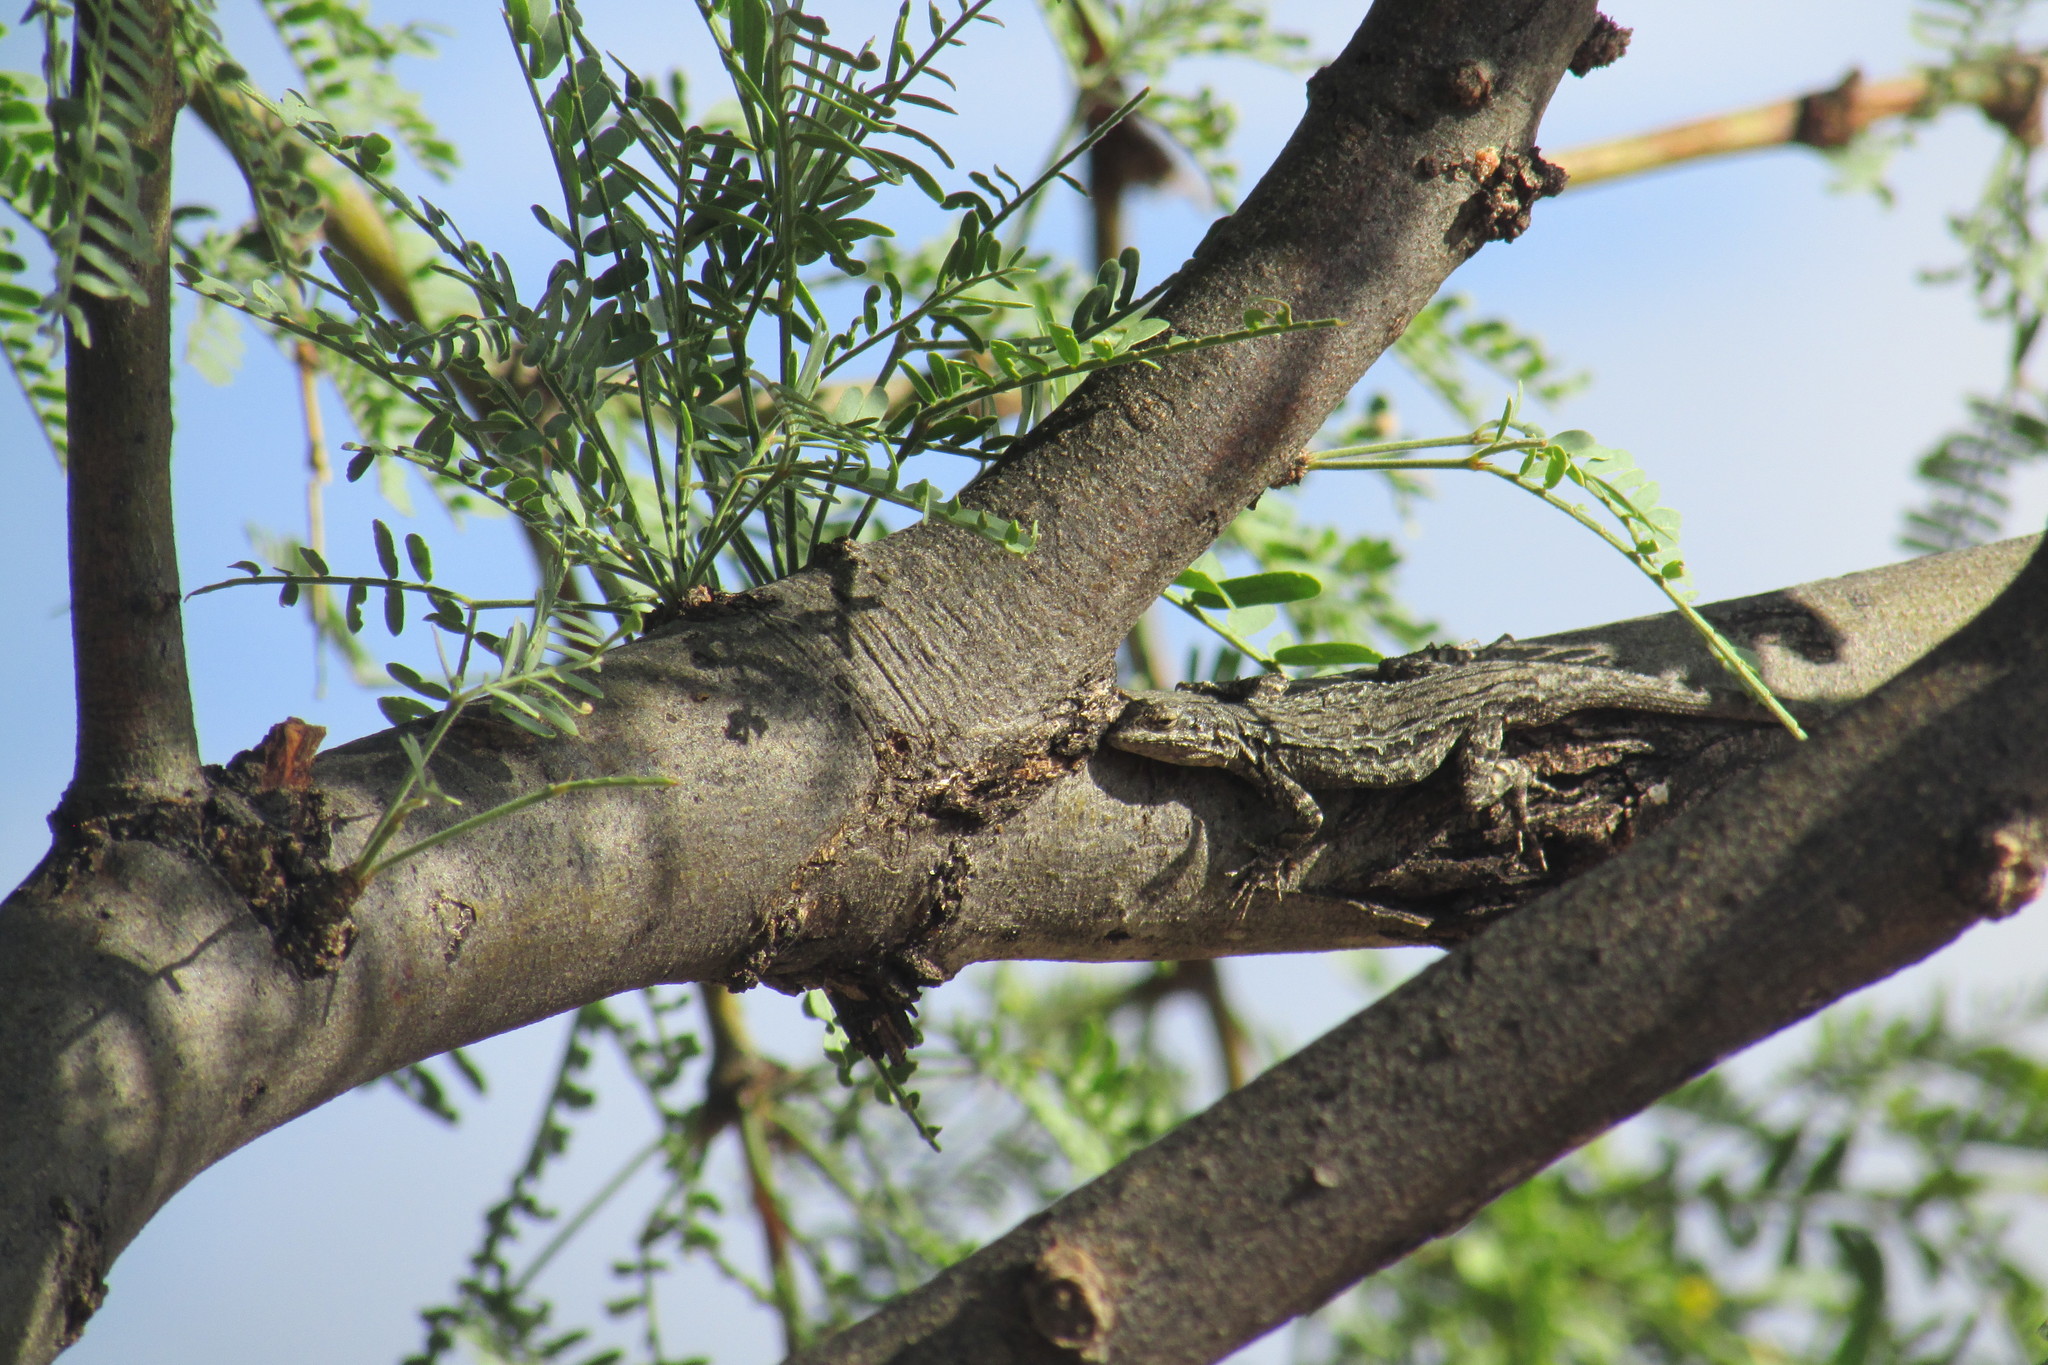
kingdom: Animalia
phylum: Chordata
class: Squamata
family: Phrynosomatidae
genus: Urosaurus
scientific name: Urosaurus ornatus
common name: Ornate tree lizard
